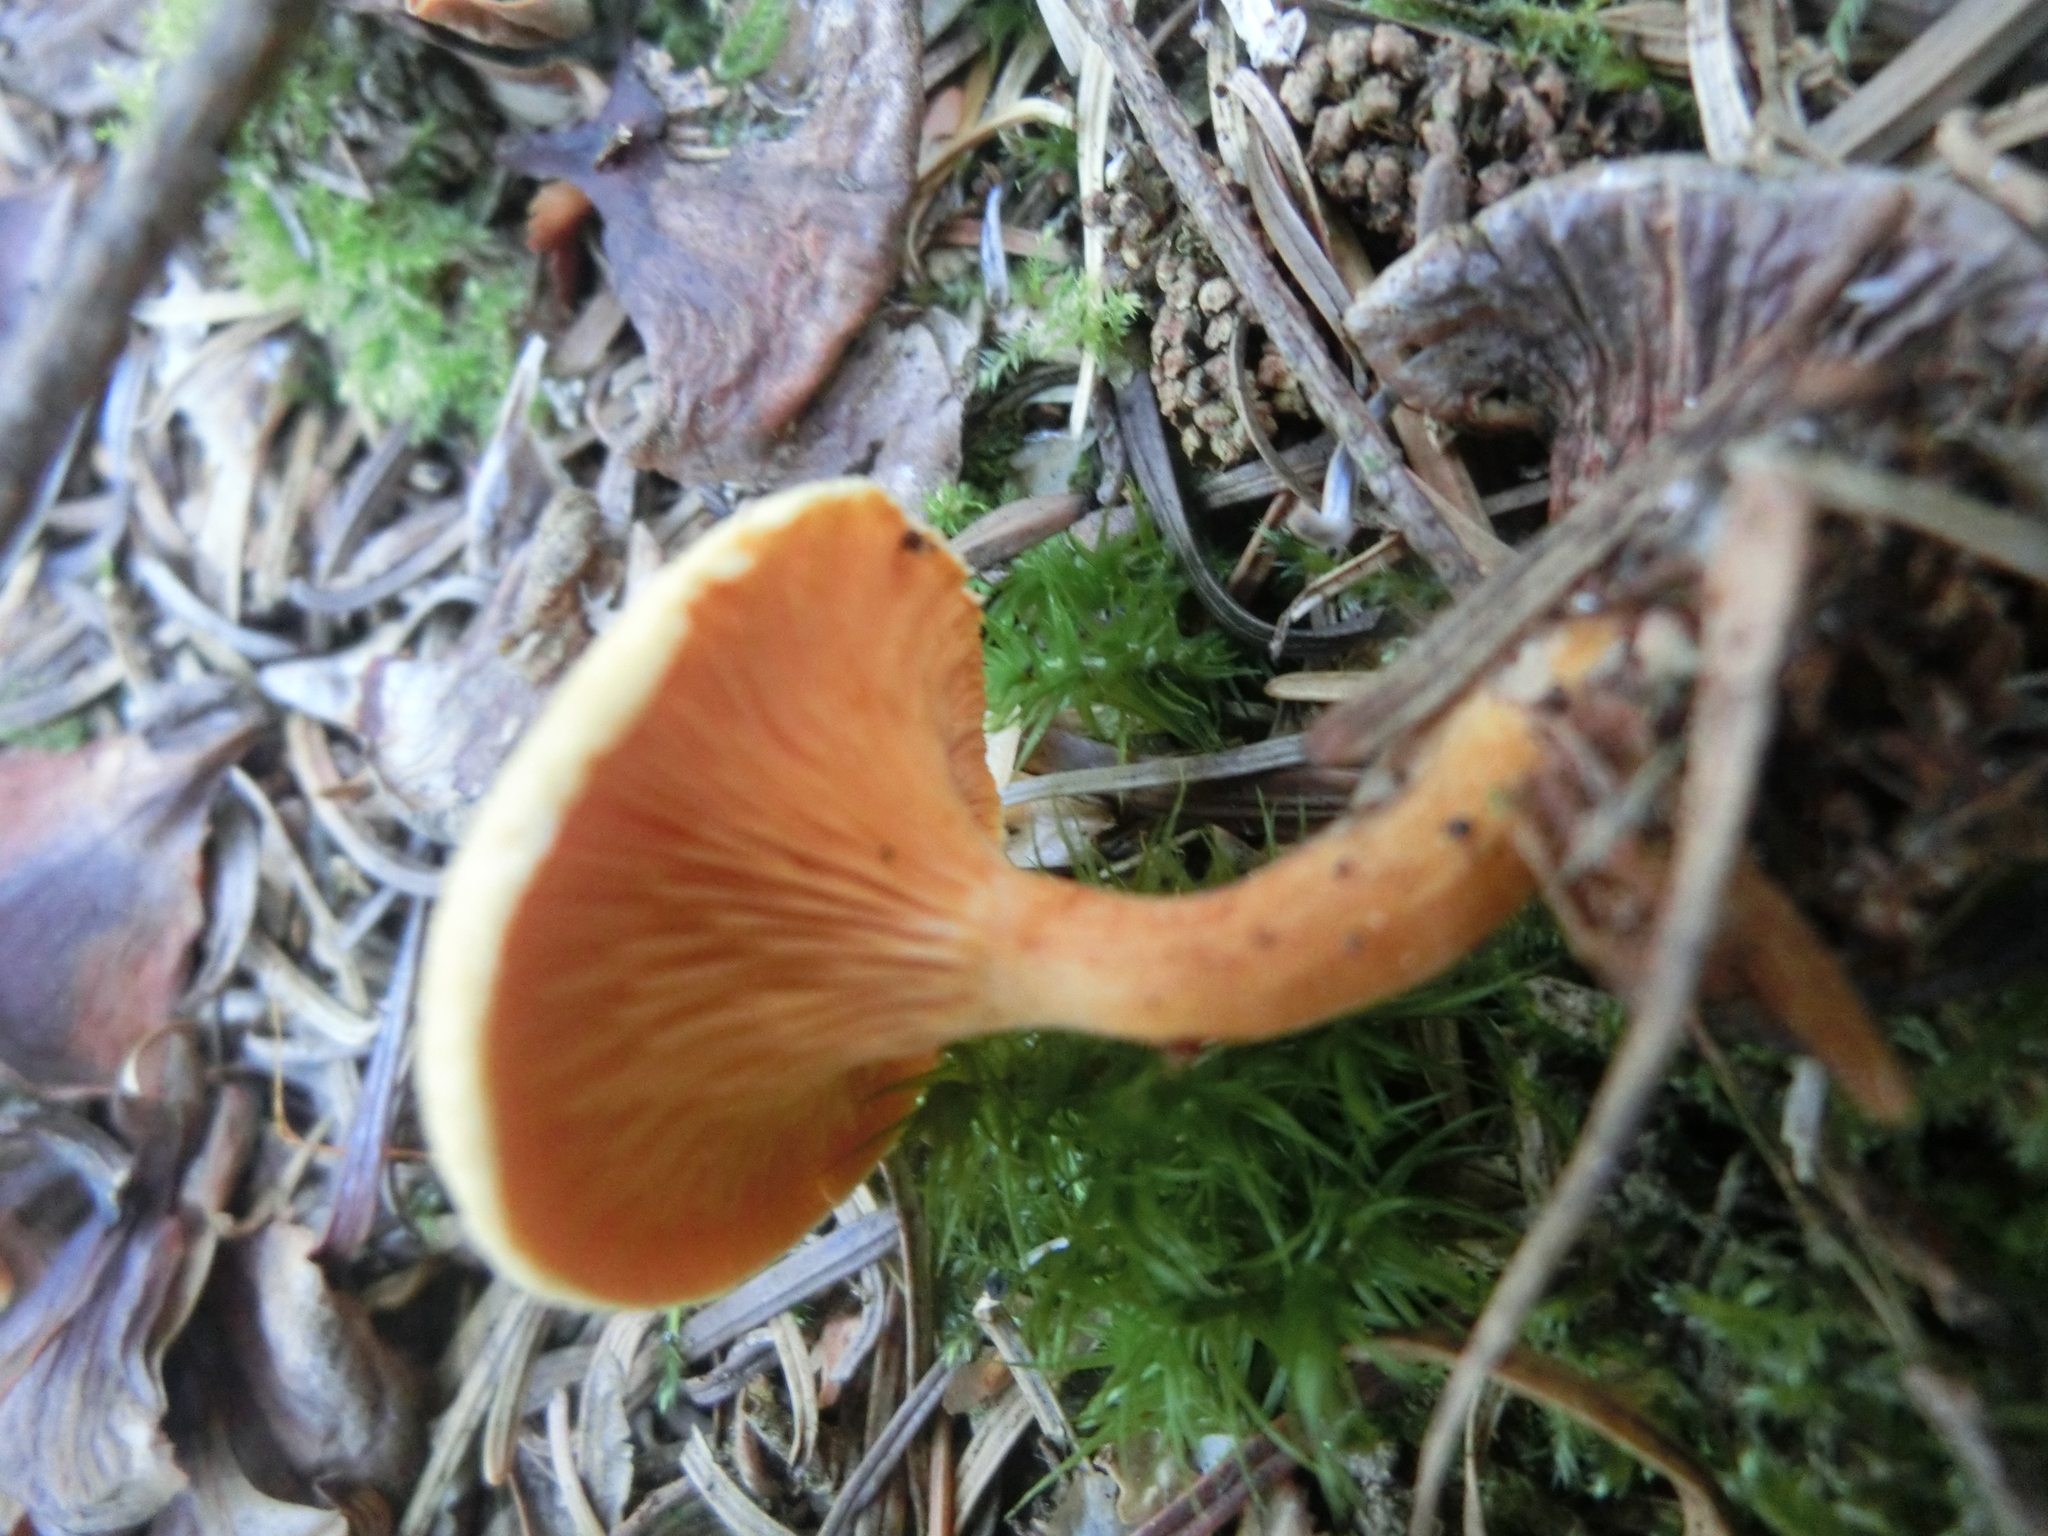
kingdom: Fungi
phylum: Basidiomycota
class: Agaricomycetes
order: Boletales
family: Hygrophoropsidaceae
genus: Hygrophoropsis
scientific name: Hygrophoropsis aurantiaca
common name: False chanterelle
